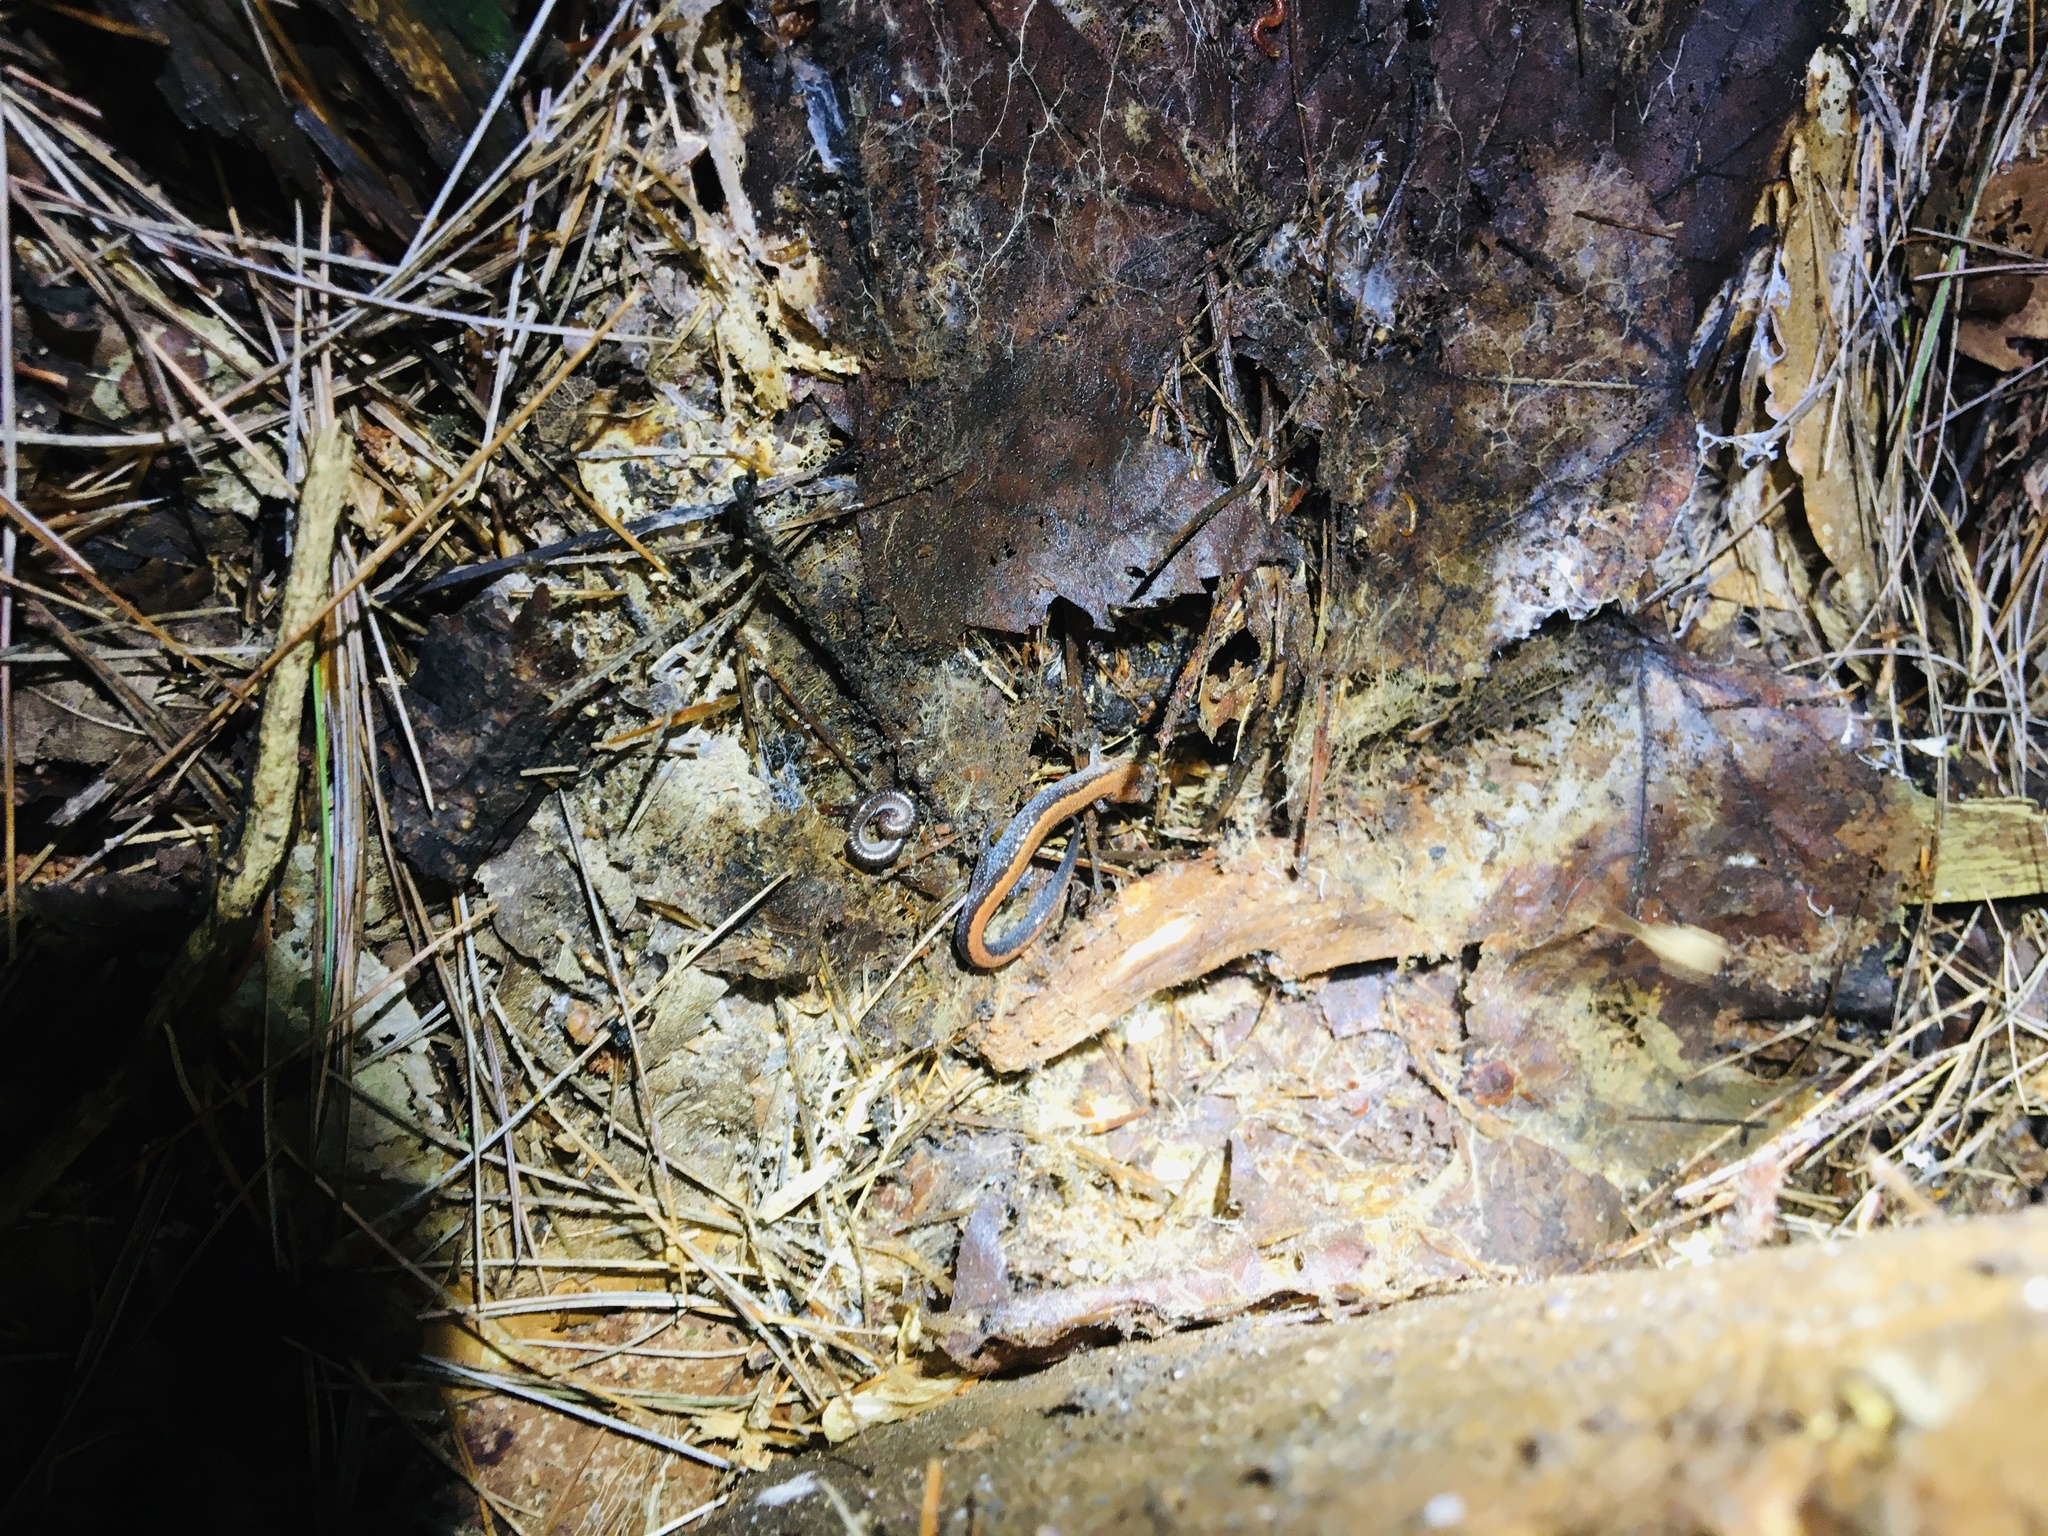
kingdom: Animalia
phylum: Chordata
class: Amphibia
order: Caudata
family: Plethodontidae
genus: Plethodon
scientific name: Plethodon cinereus
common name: Redback salamander
